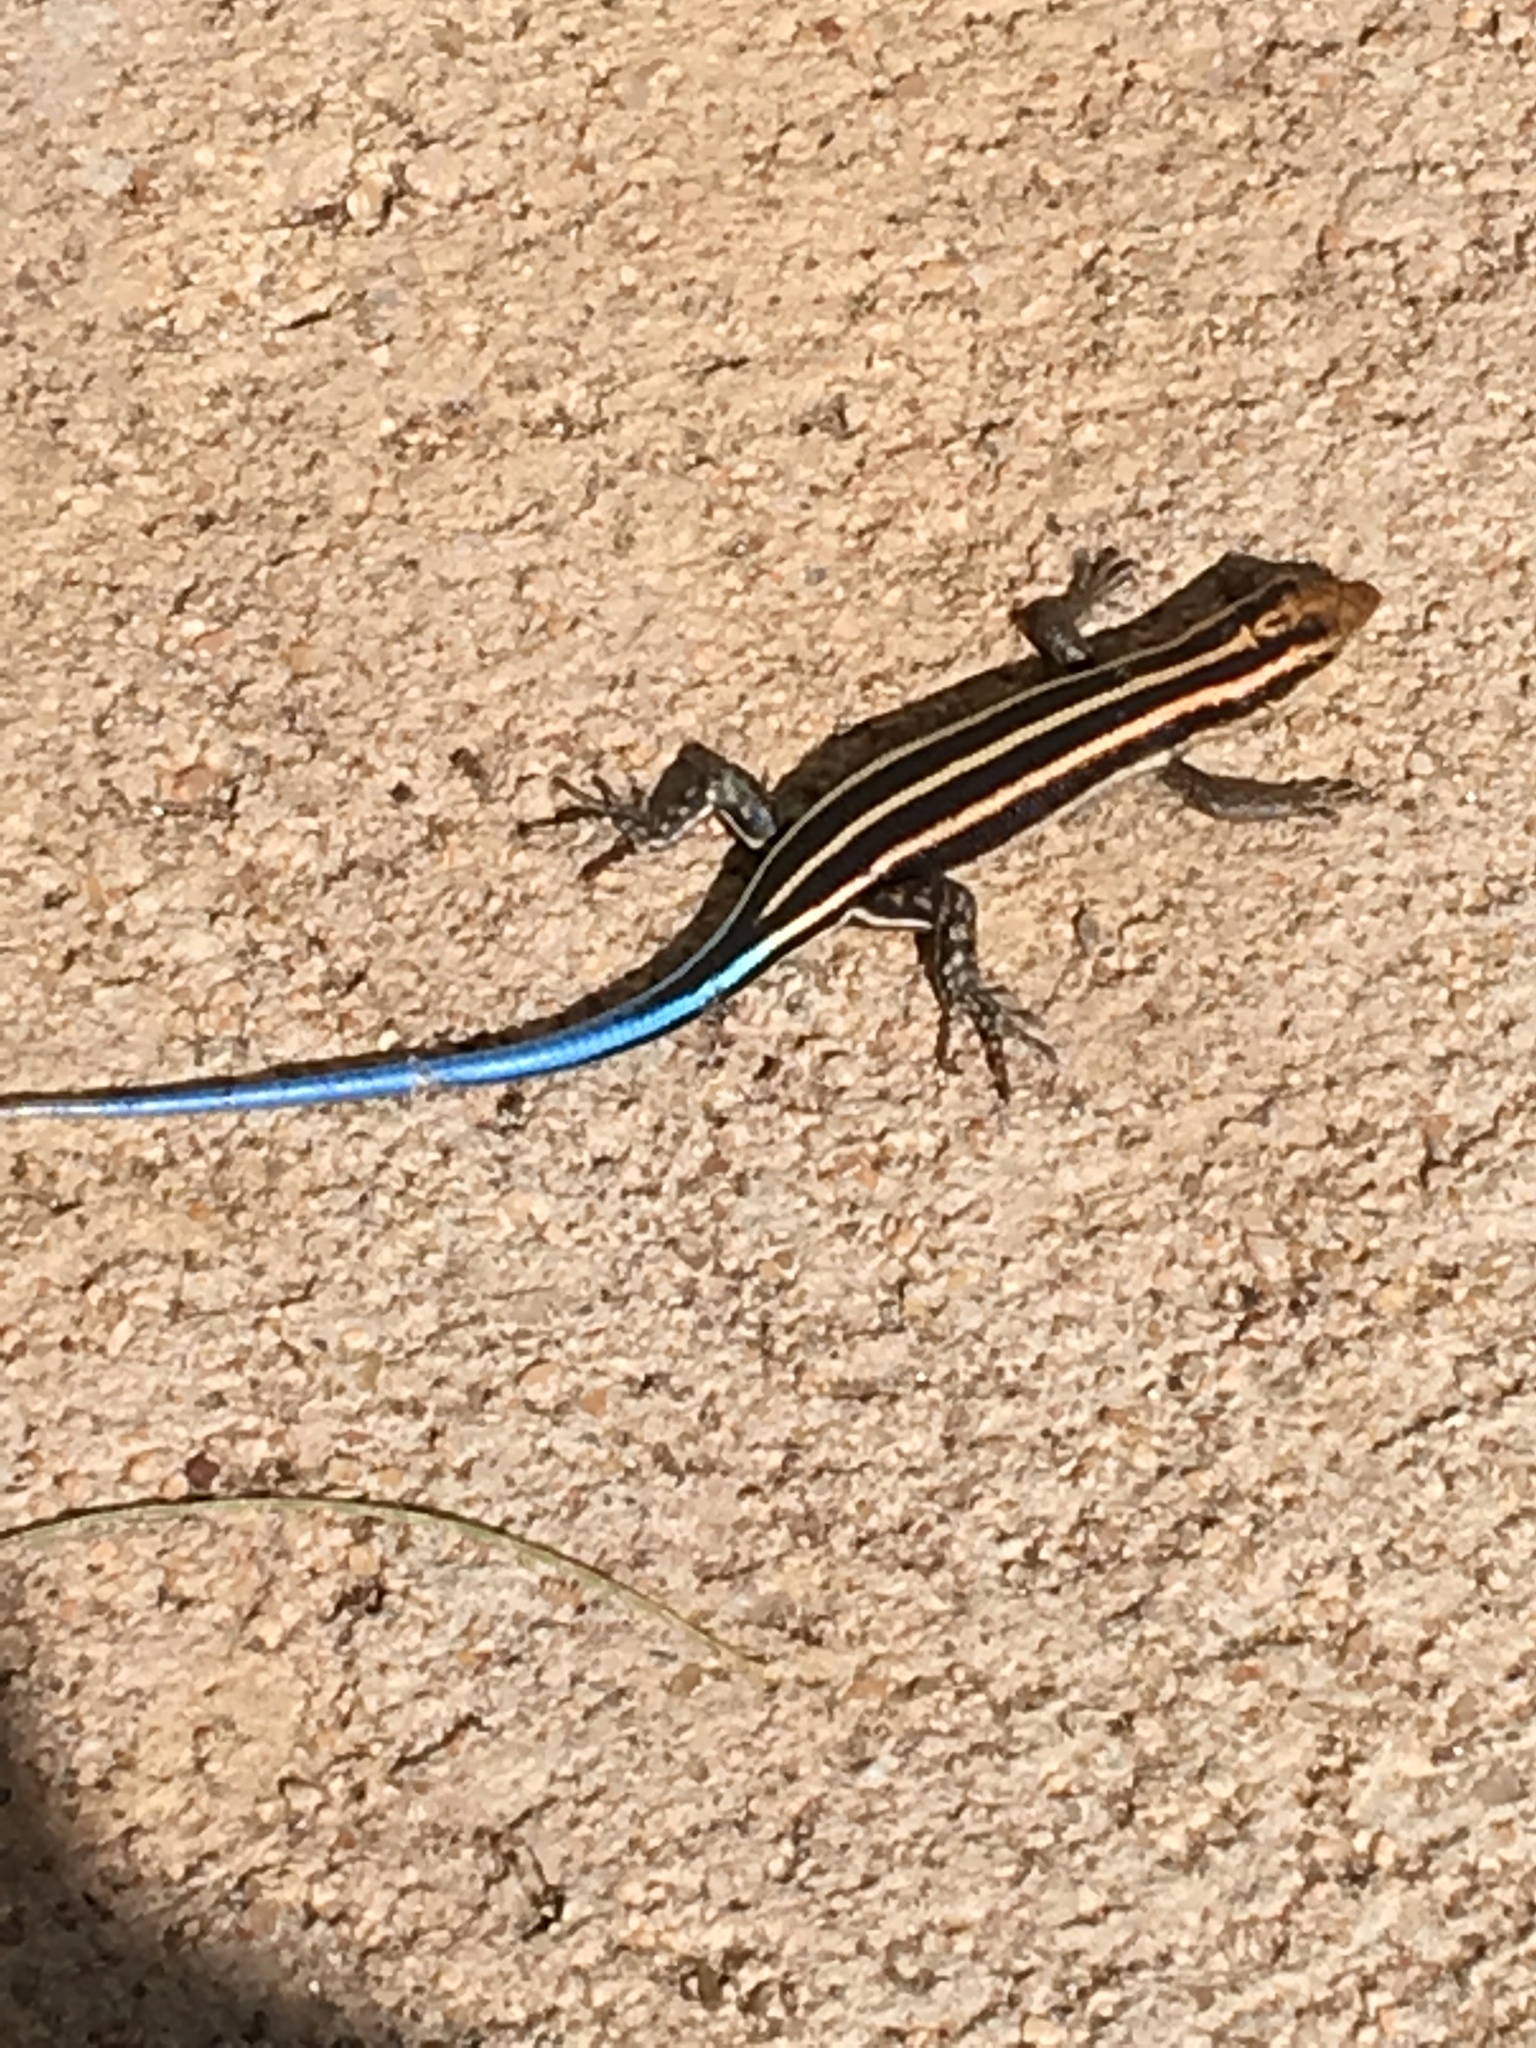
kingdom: Animalia
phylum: Chordata
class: Squamata
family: Scincidae
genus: Trachylepis
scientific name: Trachylepis margaritifera
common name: Rainbow skink
